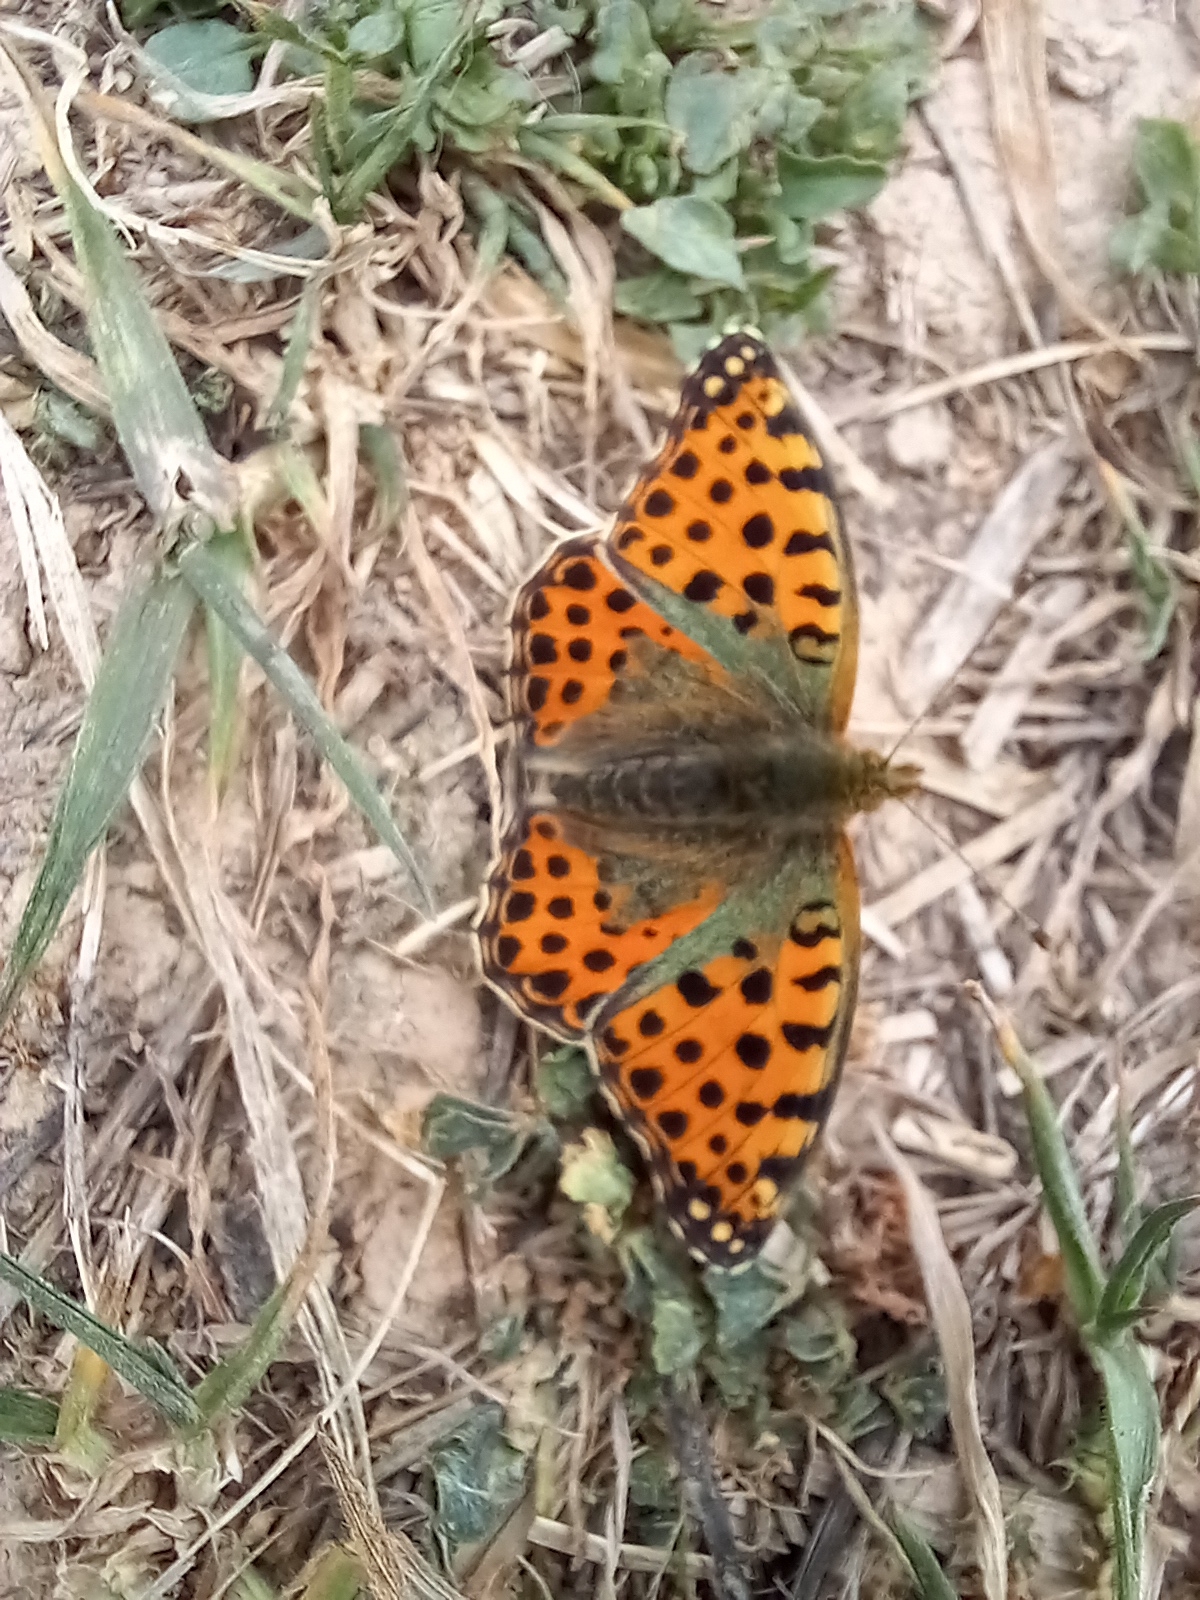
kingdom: Animalia
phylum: Arthropoda
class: Insecta
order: Lepidoptera
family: Nymphalidae
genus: Issoria
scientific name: Issoria lathonia
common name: Queen of spain fritillary
